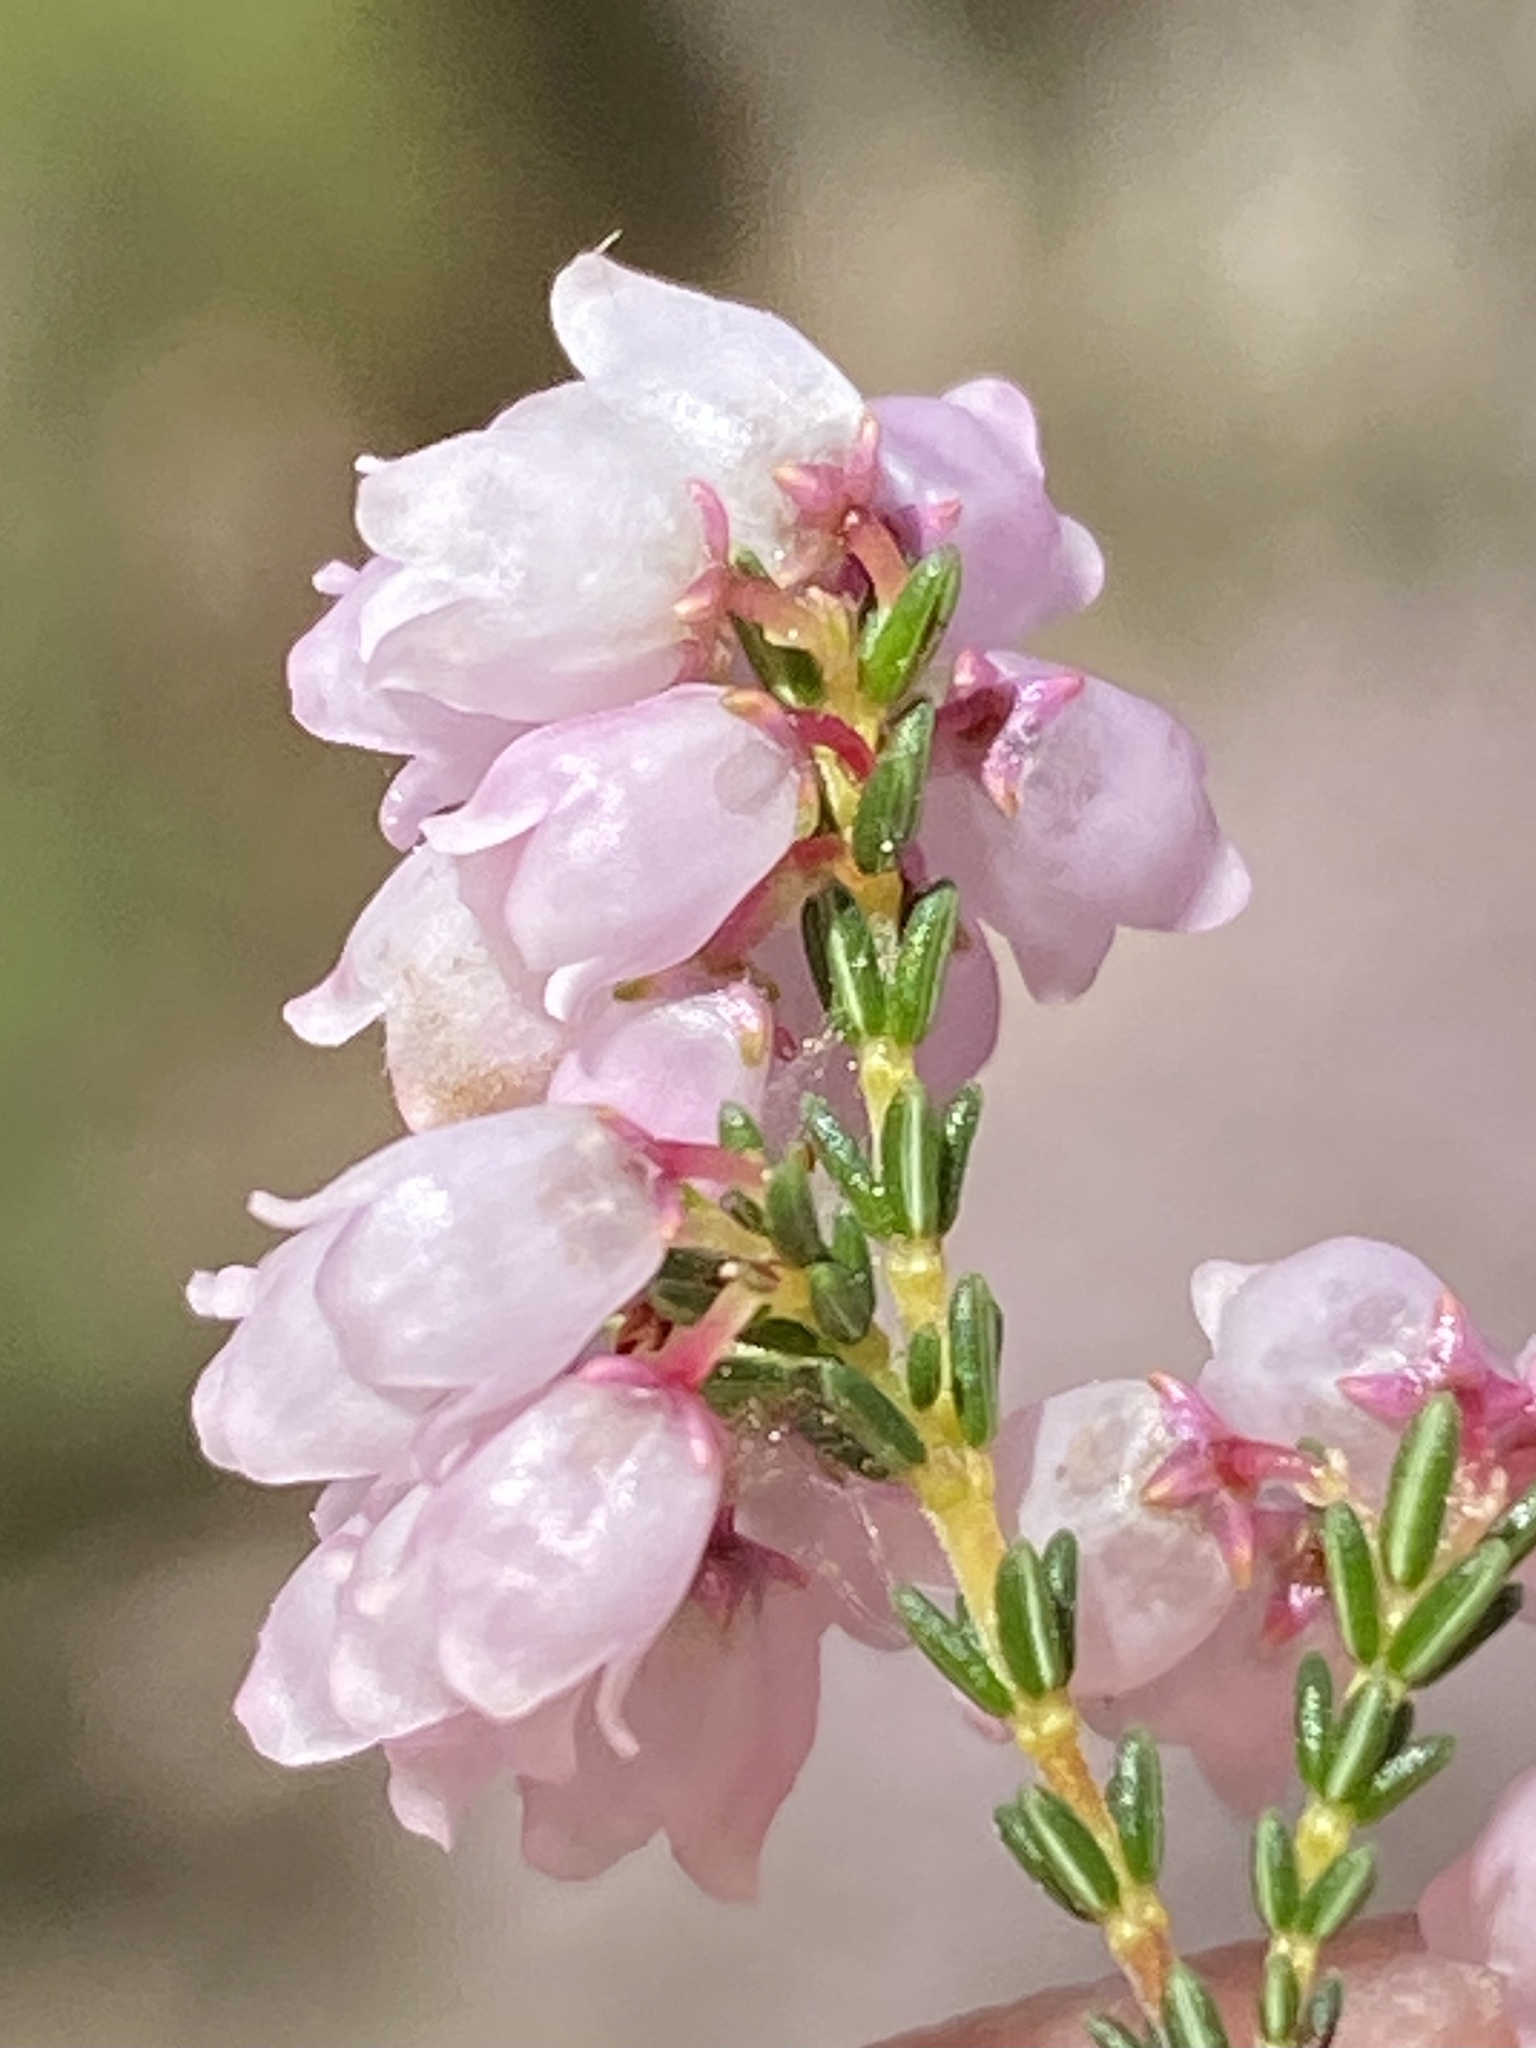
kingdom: Plantae
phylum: Tracheophyta
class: Magnoliopsida
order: Ericales
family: Ericaceae
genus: Erica
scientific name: Erica quadrangularis
